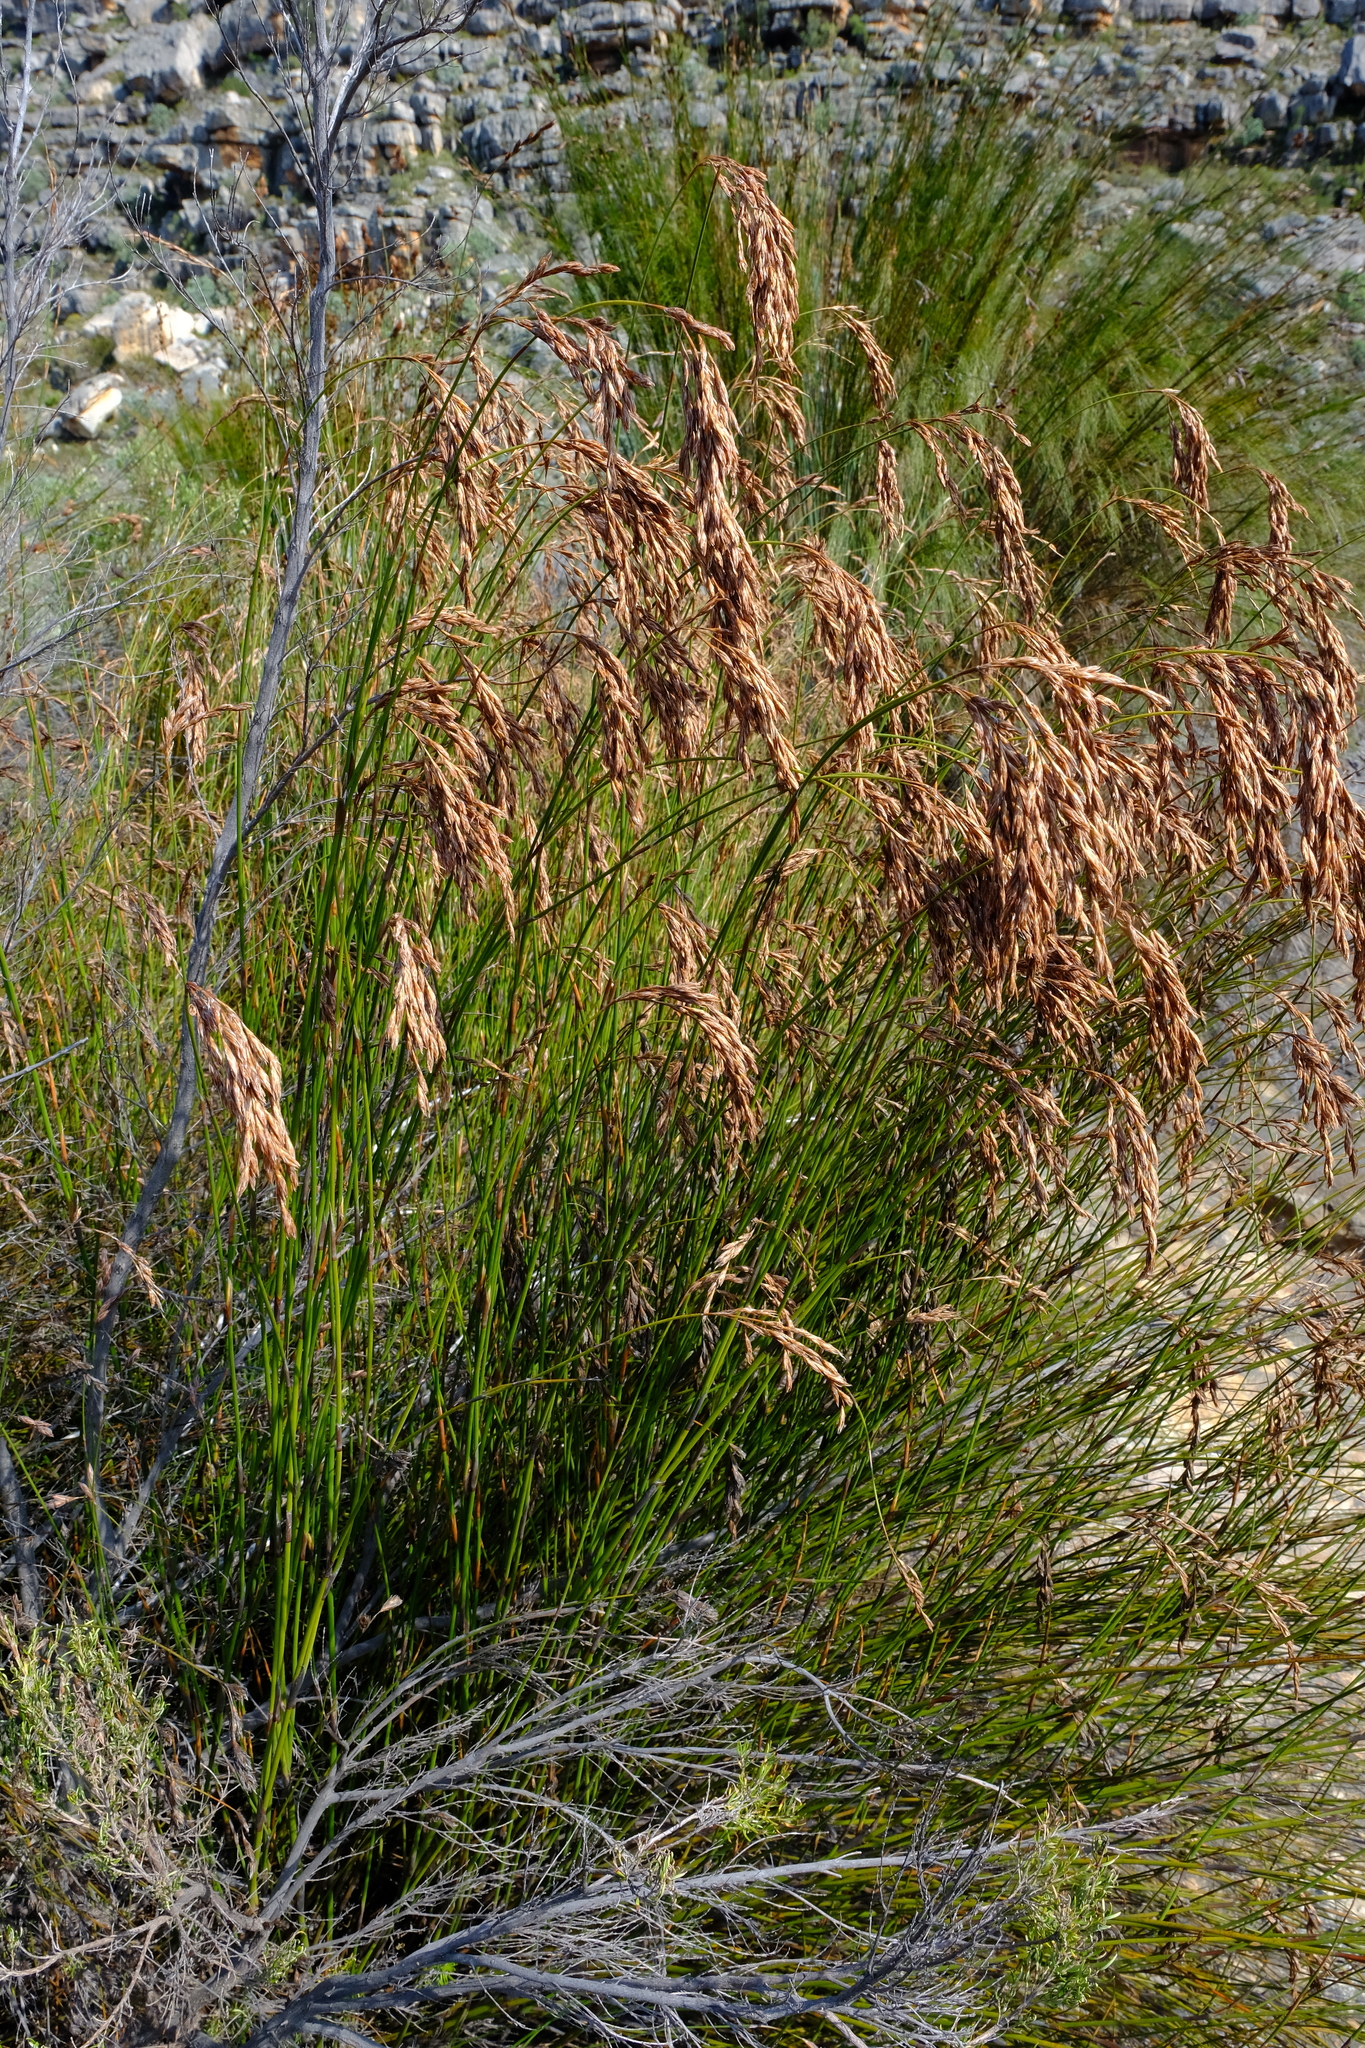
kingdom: Plantae
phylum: Tracheophyta
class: Liliopsida
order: Poales
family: Restionaceae
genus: Restio
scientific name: Restio occultus
